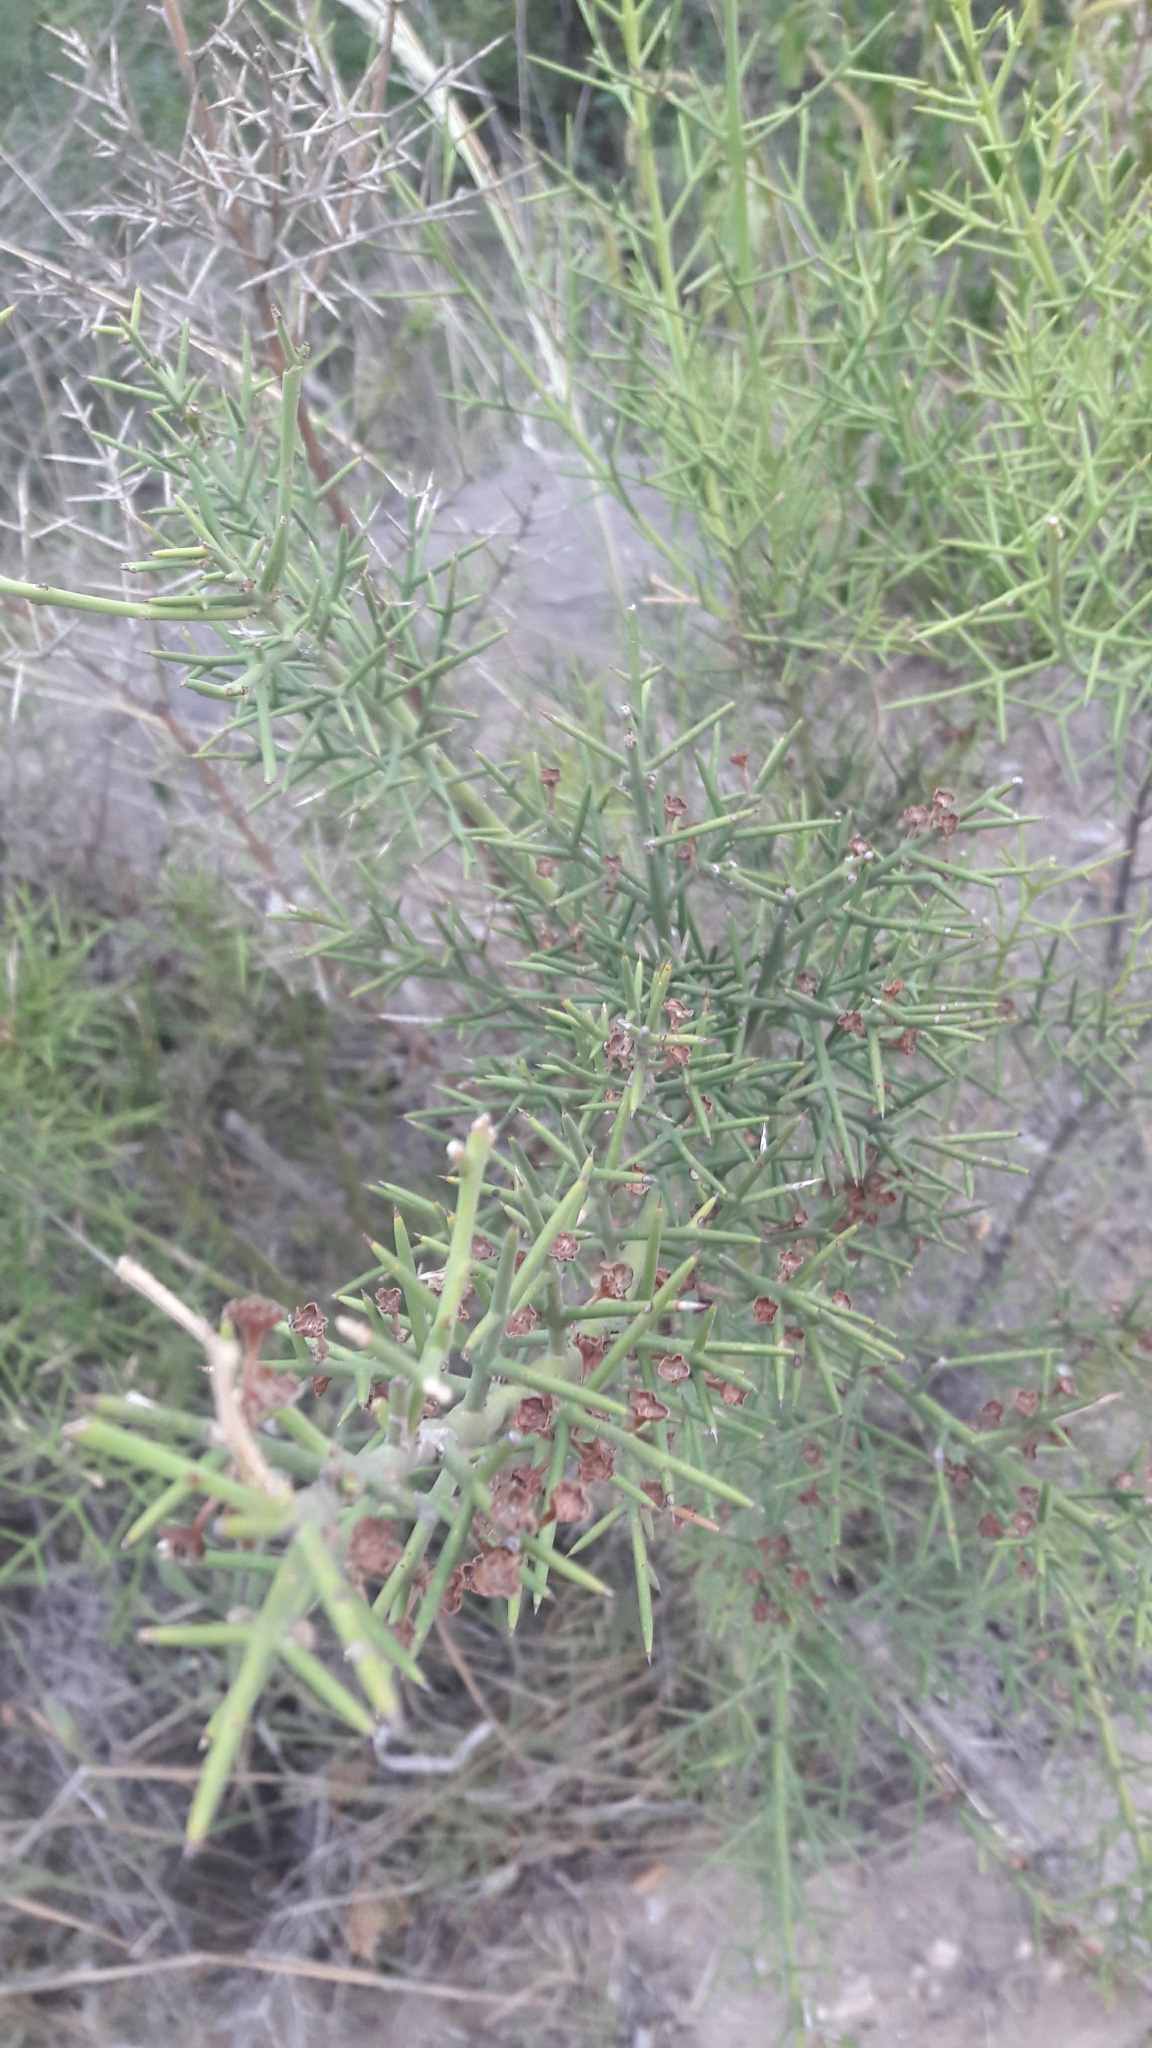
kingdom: Plantae
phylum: Tracheophyta
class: Magnoliopsida
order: Rosales
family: Rhamnaceae
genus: Colletia
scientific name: Colletia spinosissima
